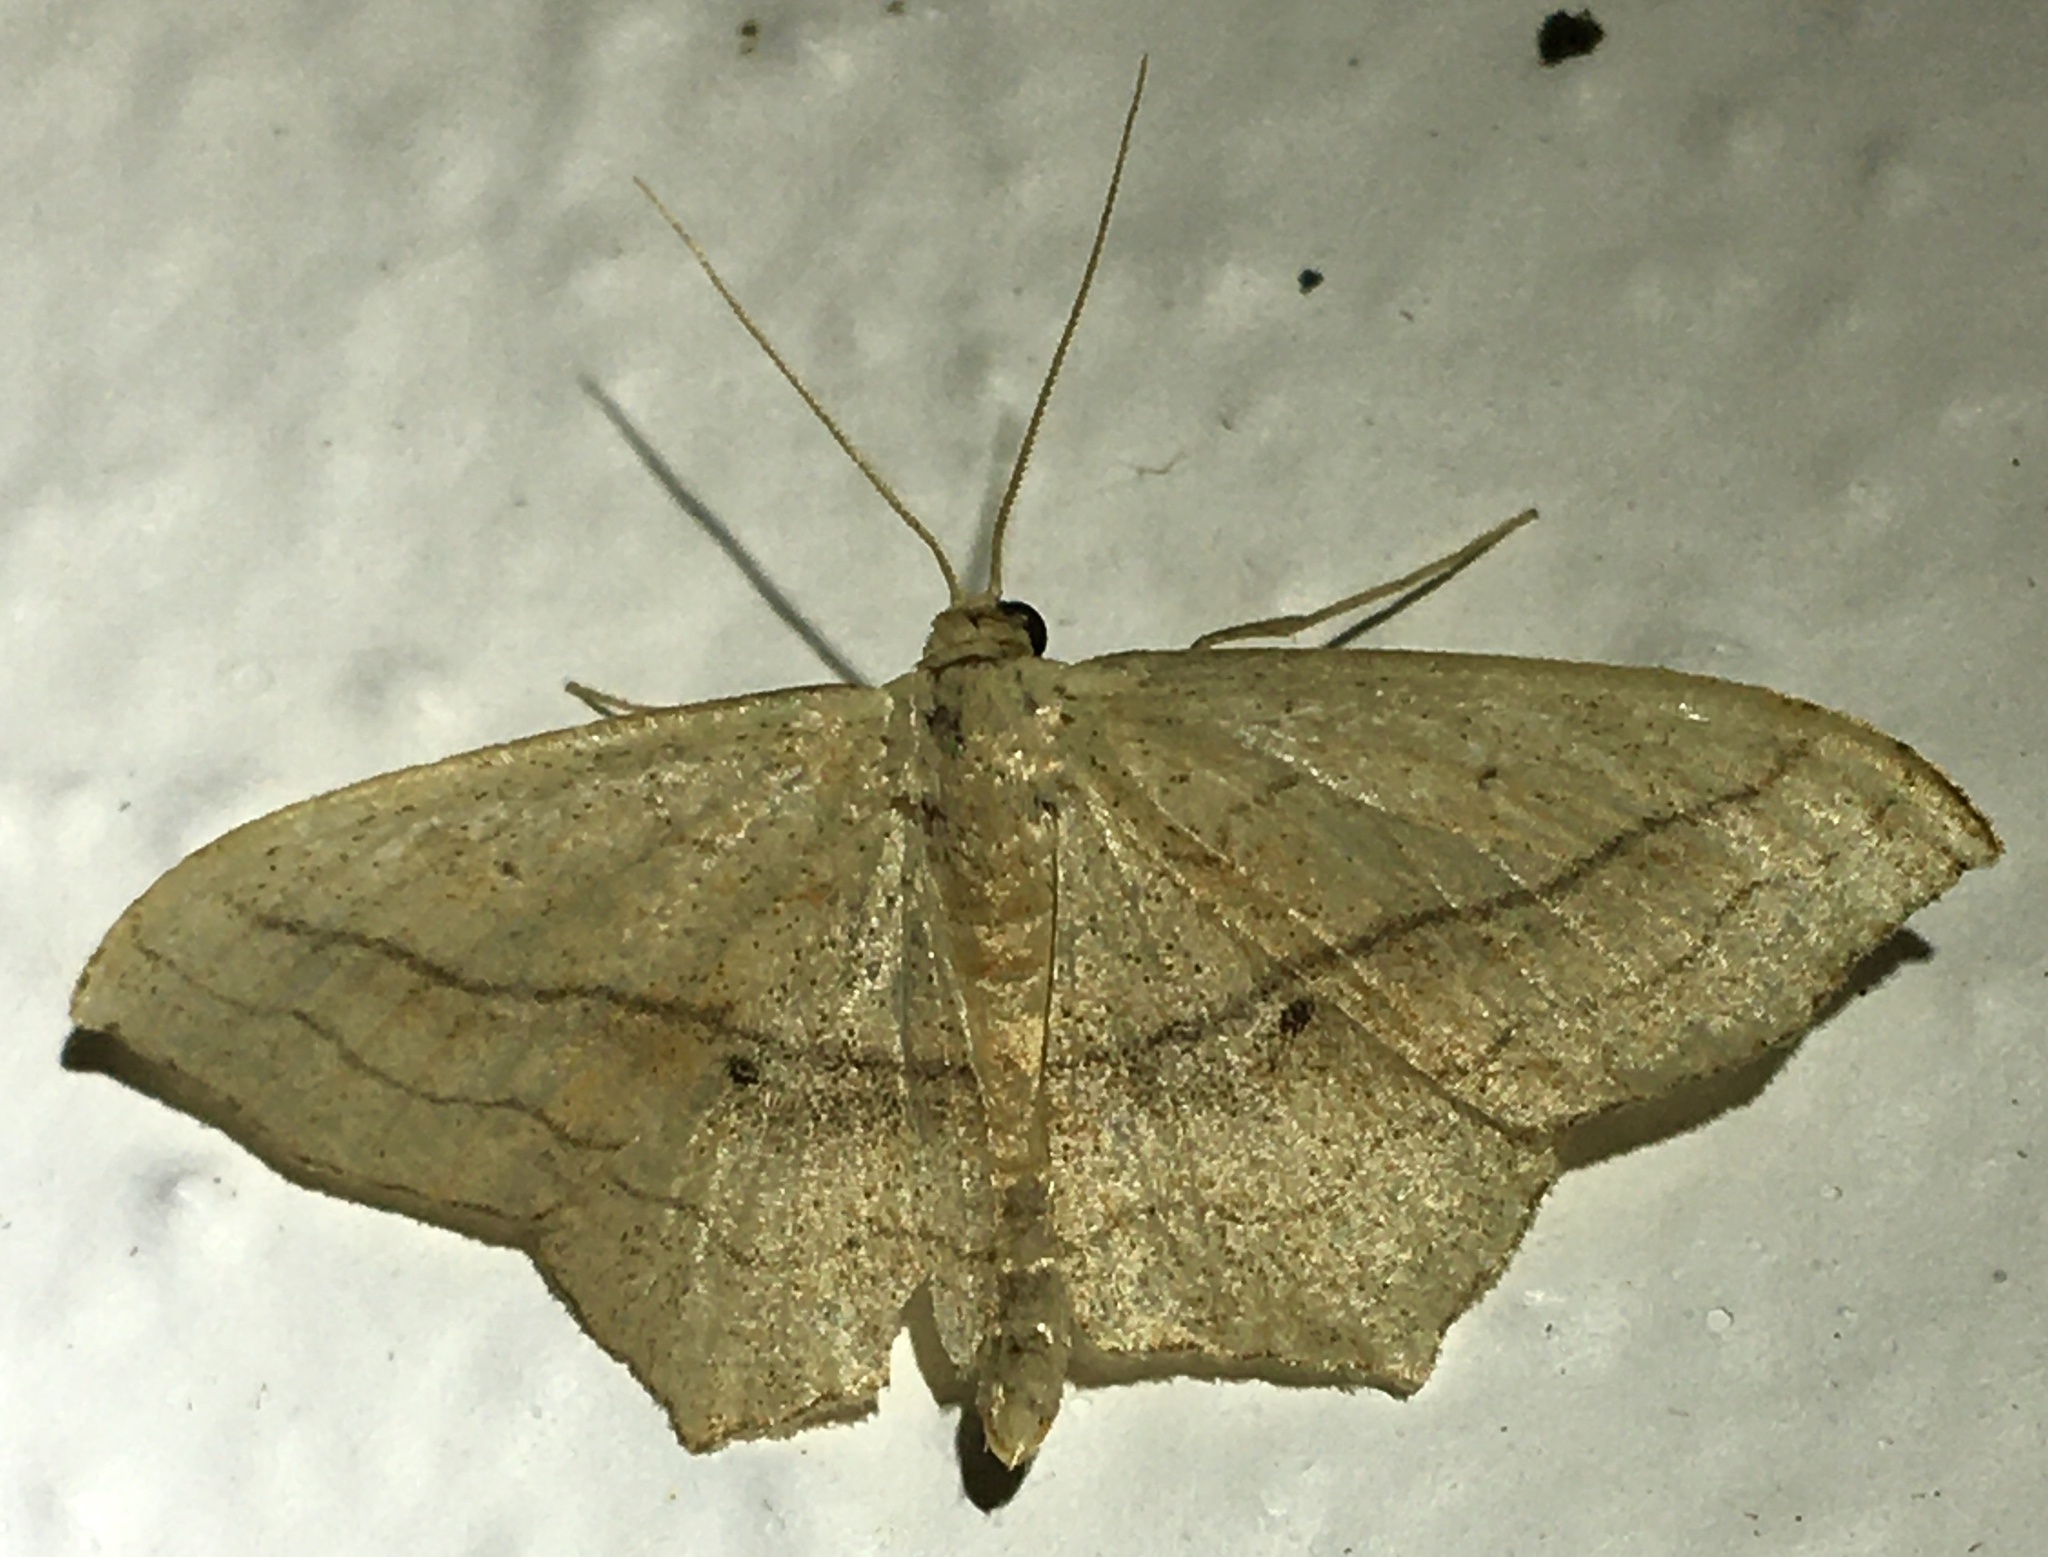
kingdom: Animalia
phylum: Arthropoda
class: Insecta
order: Lepidoptera
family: Geometridae
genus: Scopula
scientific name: Scopula imitaria
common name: Small blood-vein
